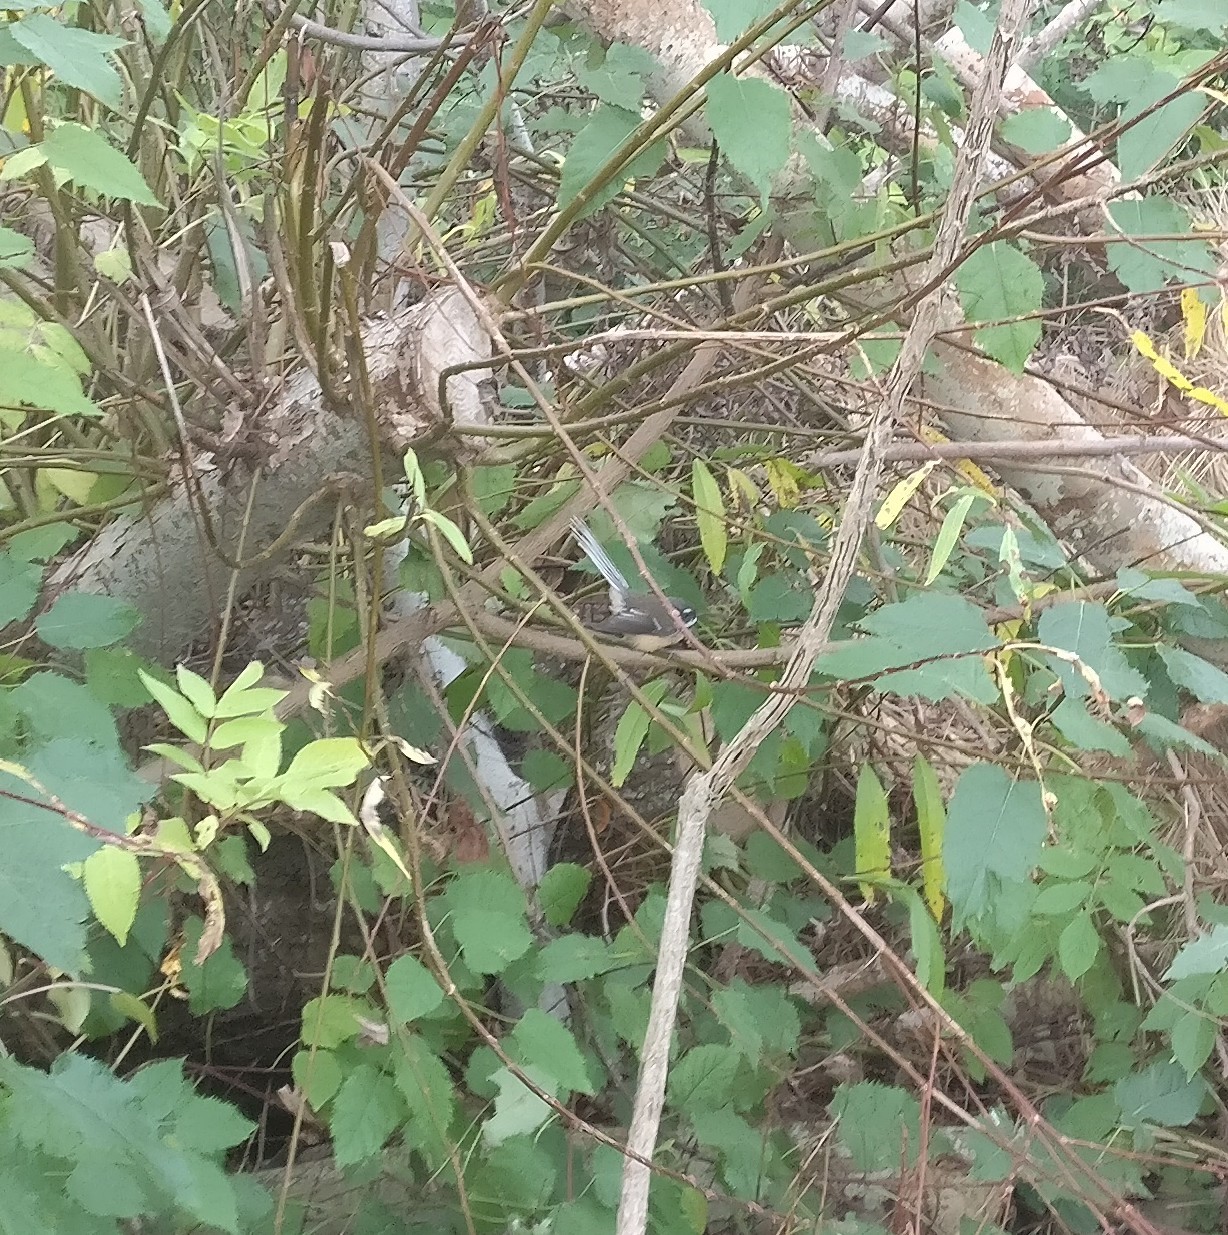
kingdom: Animalia
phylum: Chordata
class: Aves
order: Passeriformes
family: Rhipiduridae
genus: Rhipidura
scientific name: Rhipidura fuliginosa
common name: New zealand fantail
